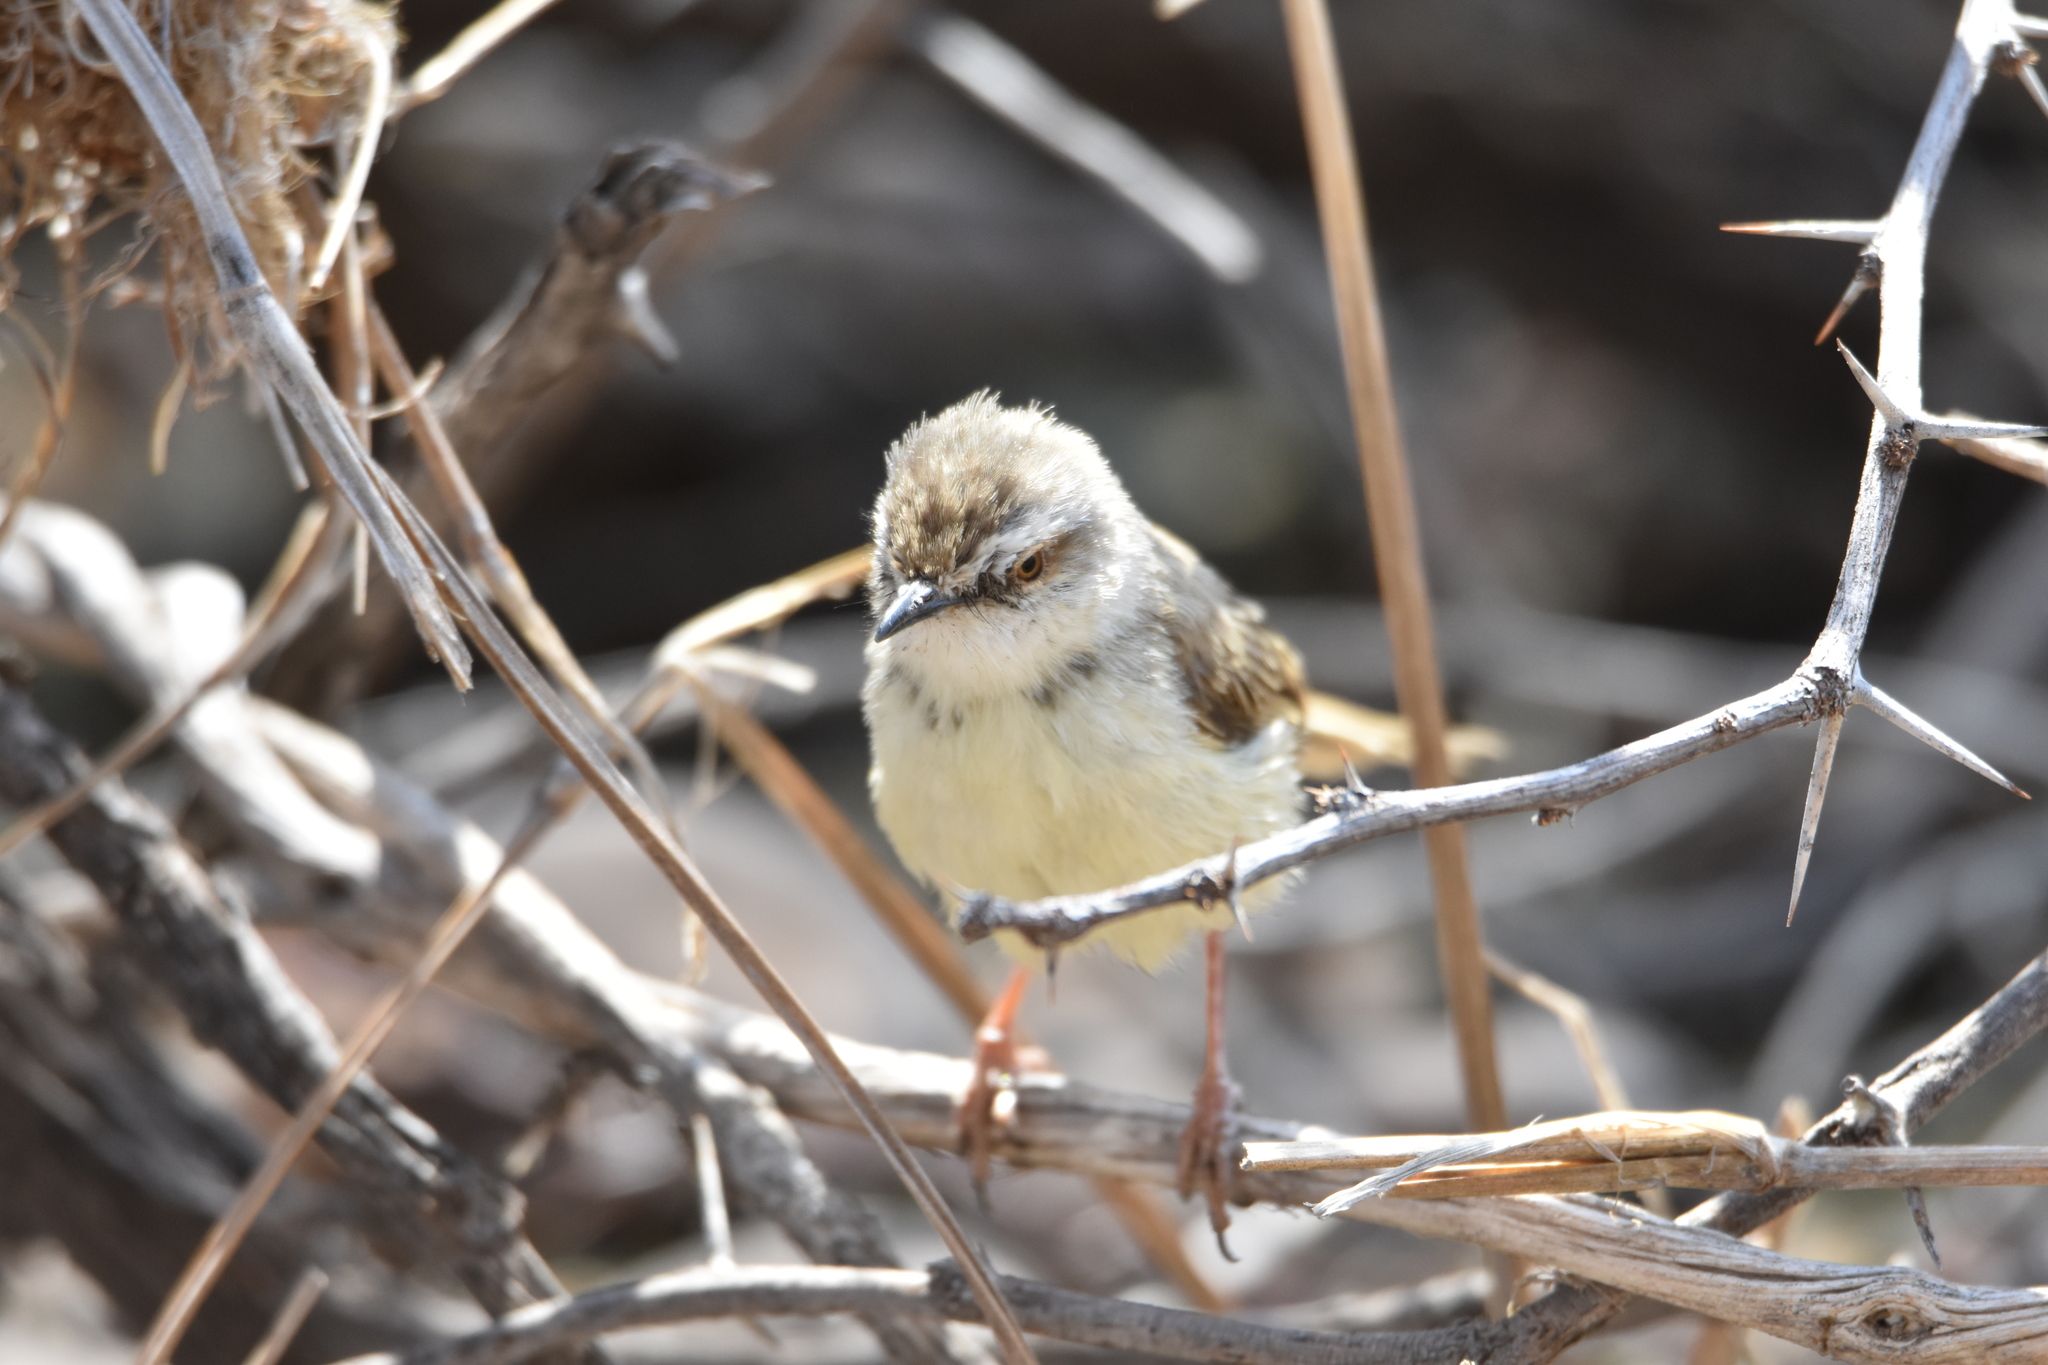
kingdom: Animalia
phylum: Chordata
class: Aves
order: Passeriformes
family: Cisticolidae
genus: Prinia
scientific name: Prinia flavicans
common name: Black-chested prinia
